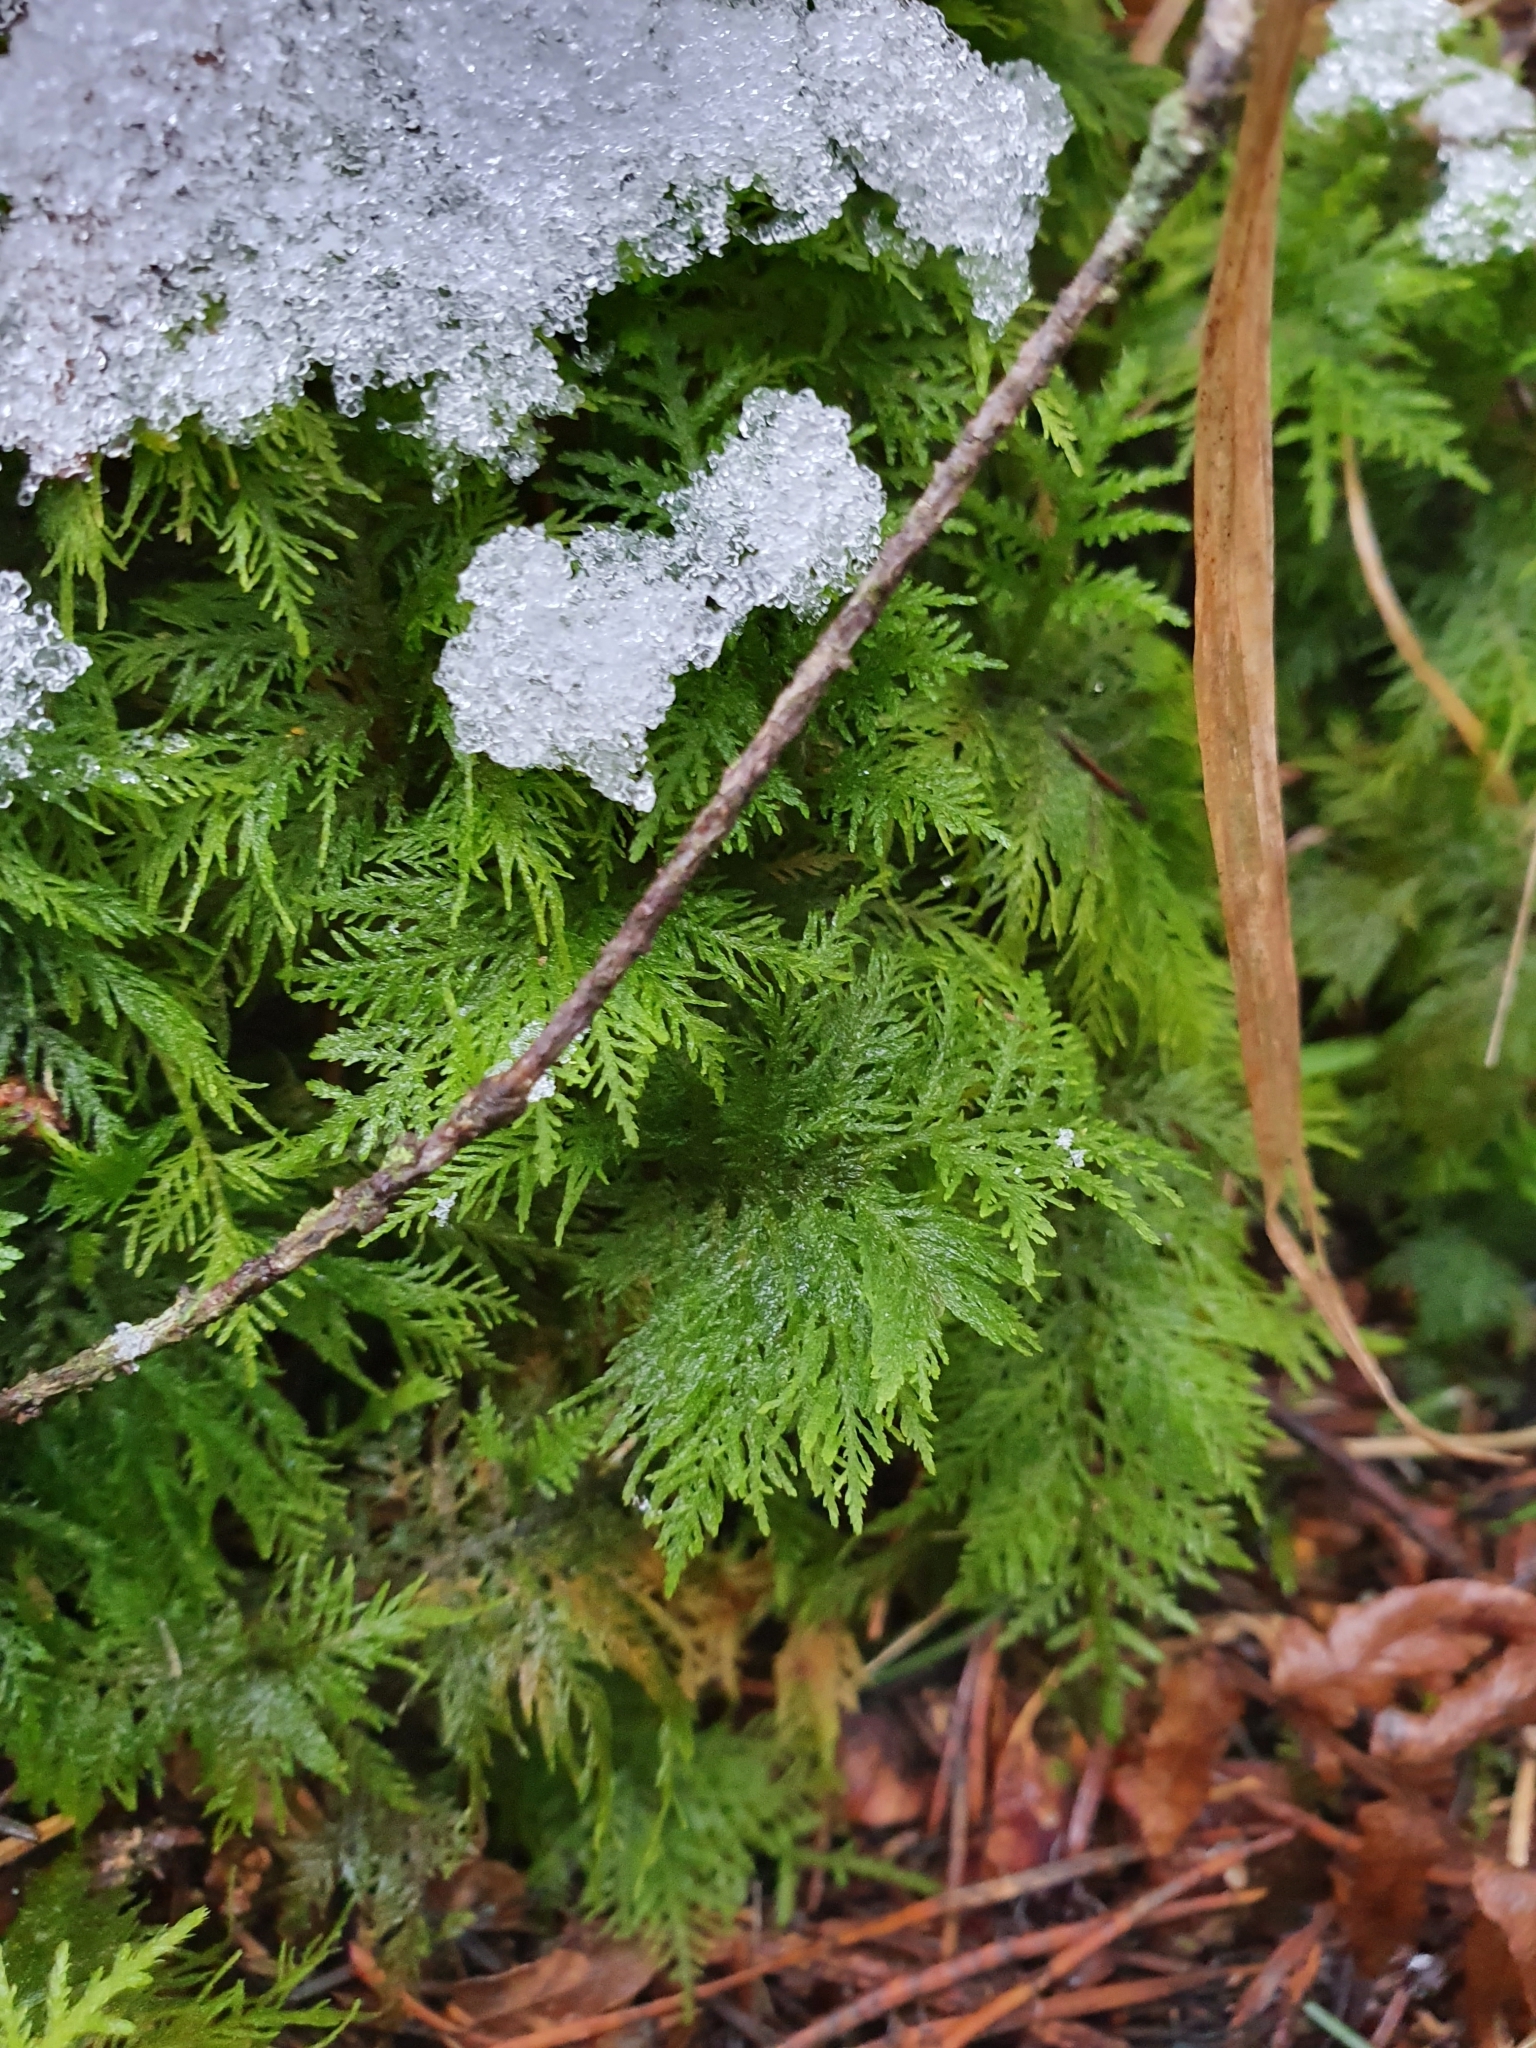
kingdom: Plantae
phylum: Bryophyta
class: Bryopsida
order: Hypnales
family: Thuidiaceae
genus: Thuidium
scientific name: Thuidium tamariscinum
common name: Common tamarisk-moss
